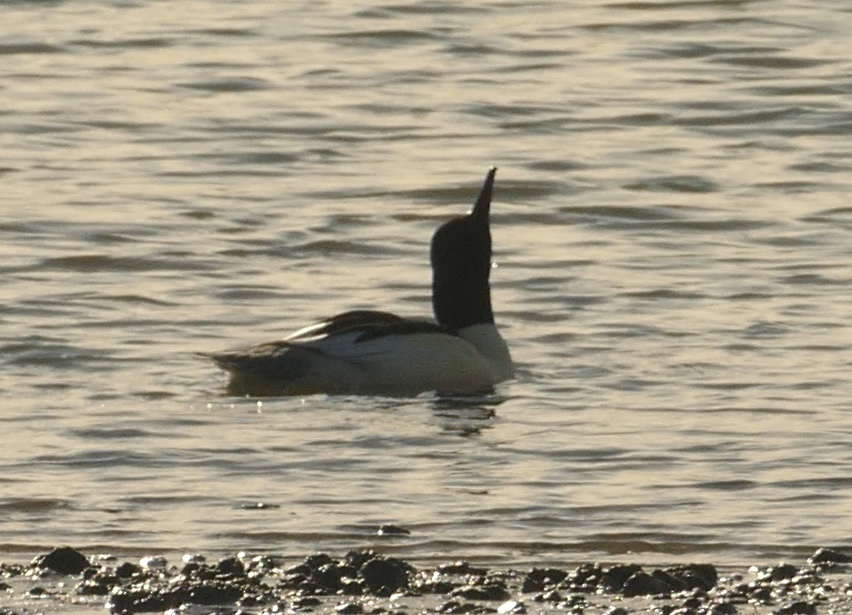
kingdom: Animalia
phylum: Chordata
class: Aves
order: Anseriformes
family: Anatidae
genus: Mergus
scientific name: Mergus merganser
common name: Common merganser
